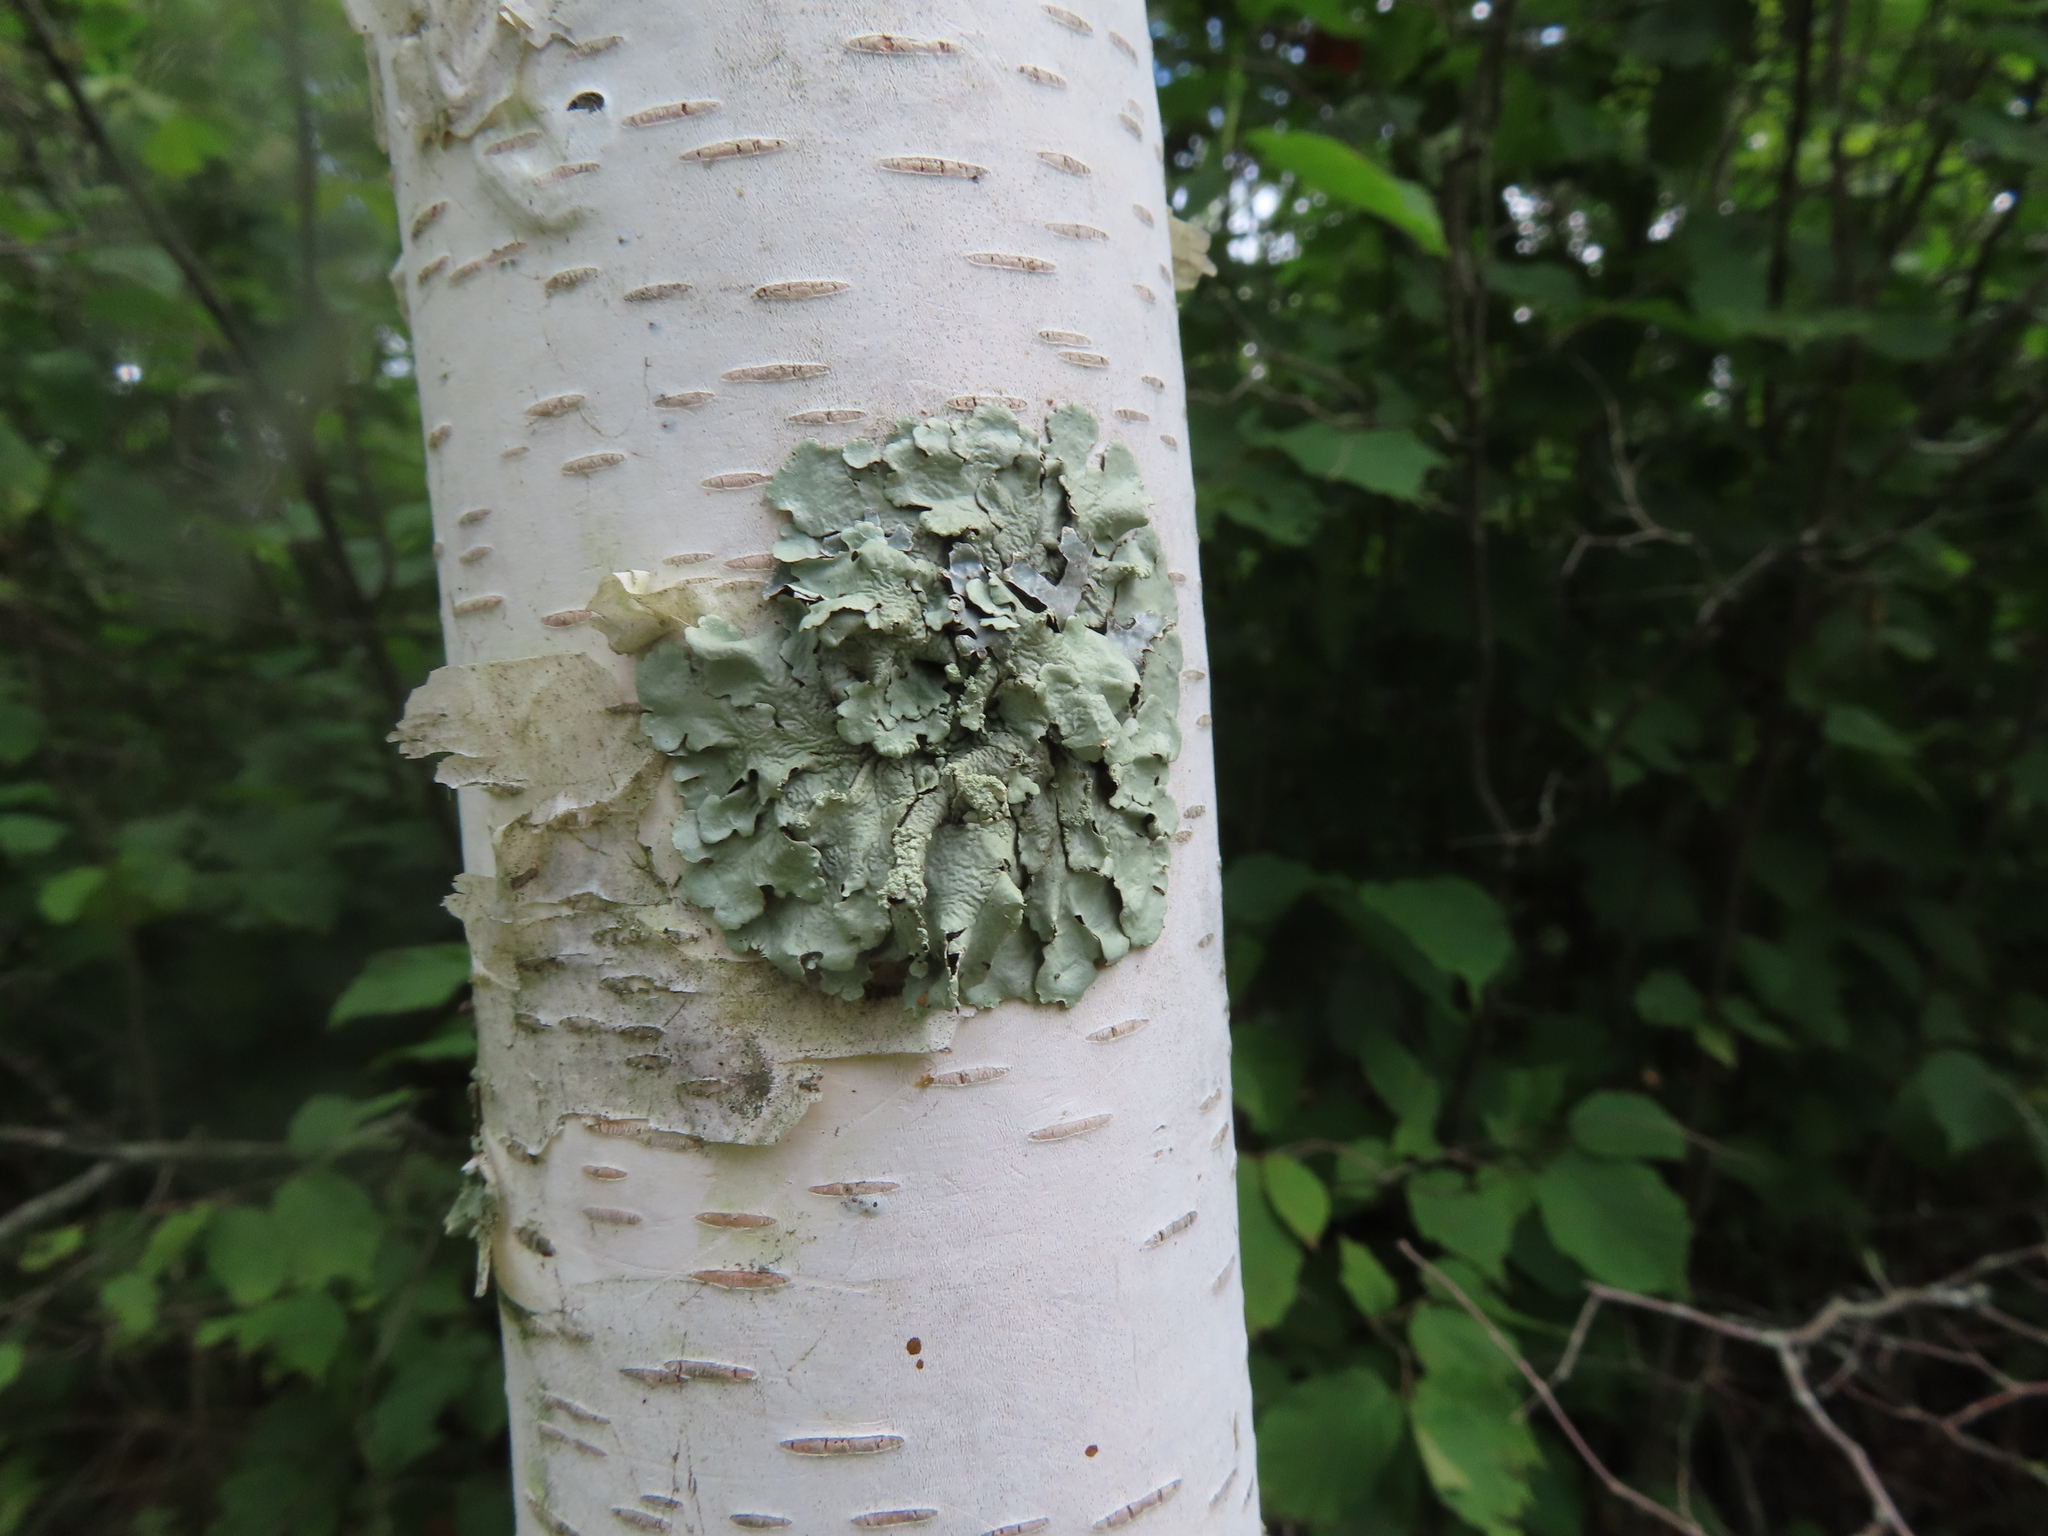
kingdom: Fungi
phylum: Ascomycota
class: Lecanoromycetes
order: Lecanorales
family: Parmeliaceae
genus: Flavoparmelia
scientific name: Flavoparmelia caperata
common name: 40-mile per hour lichen
